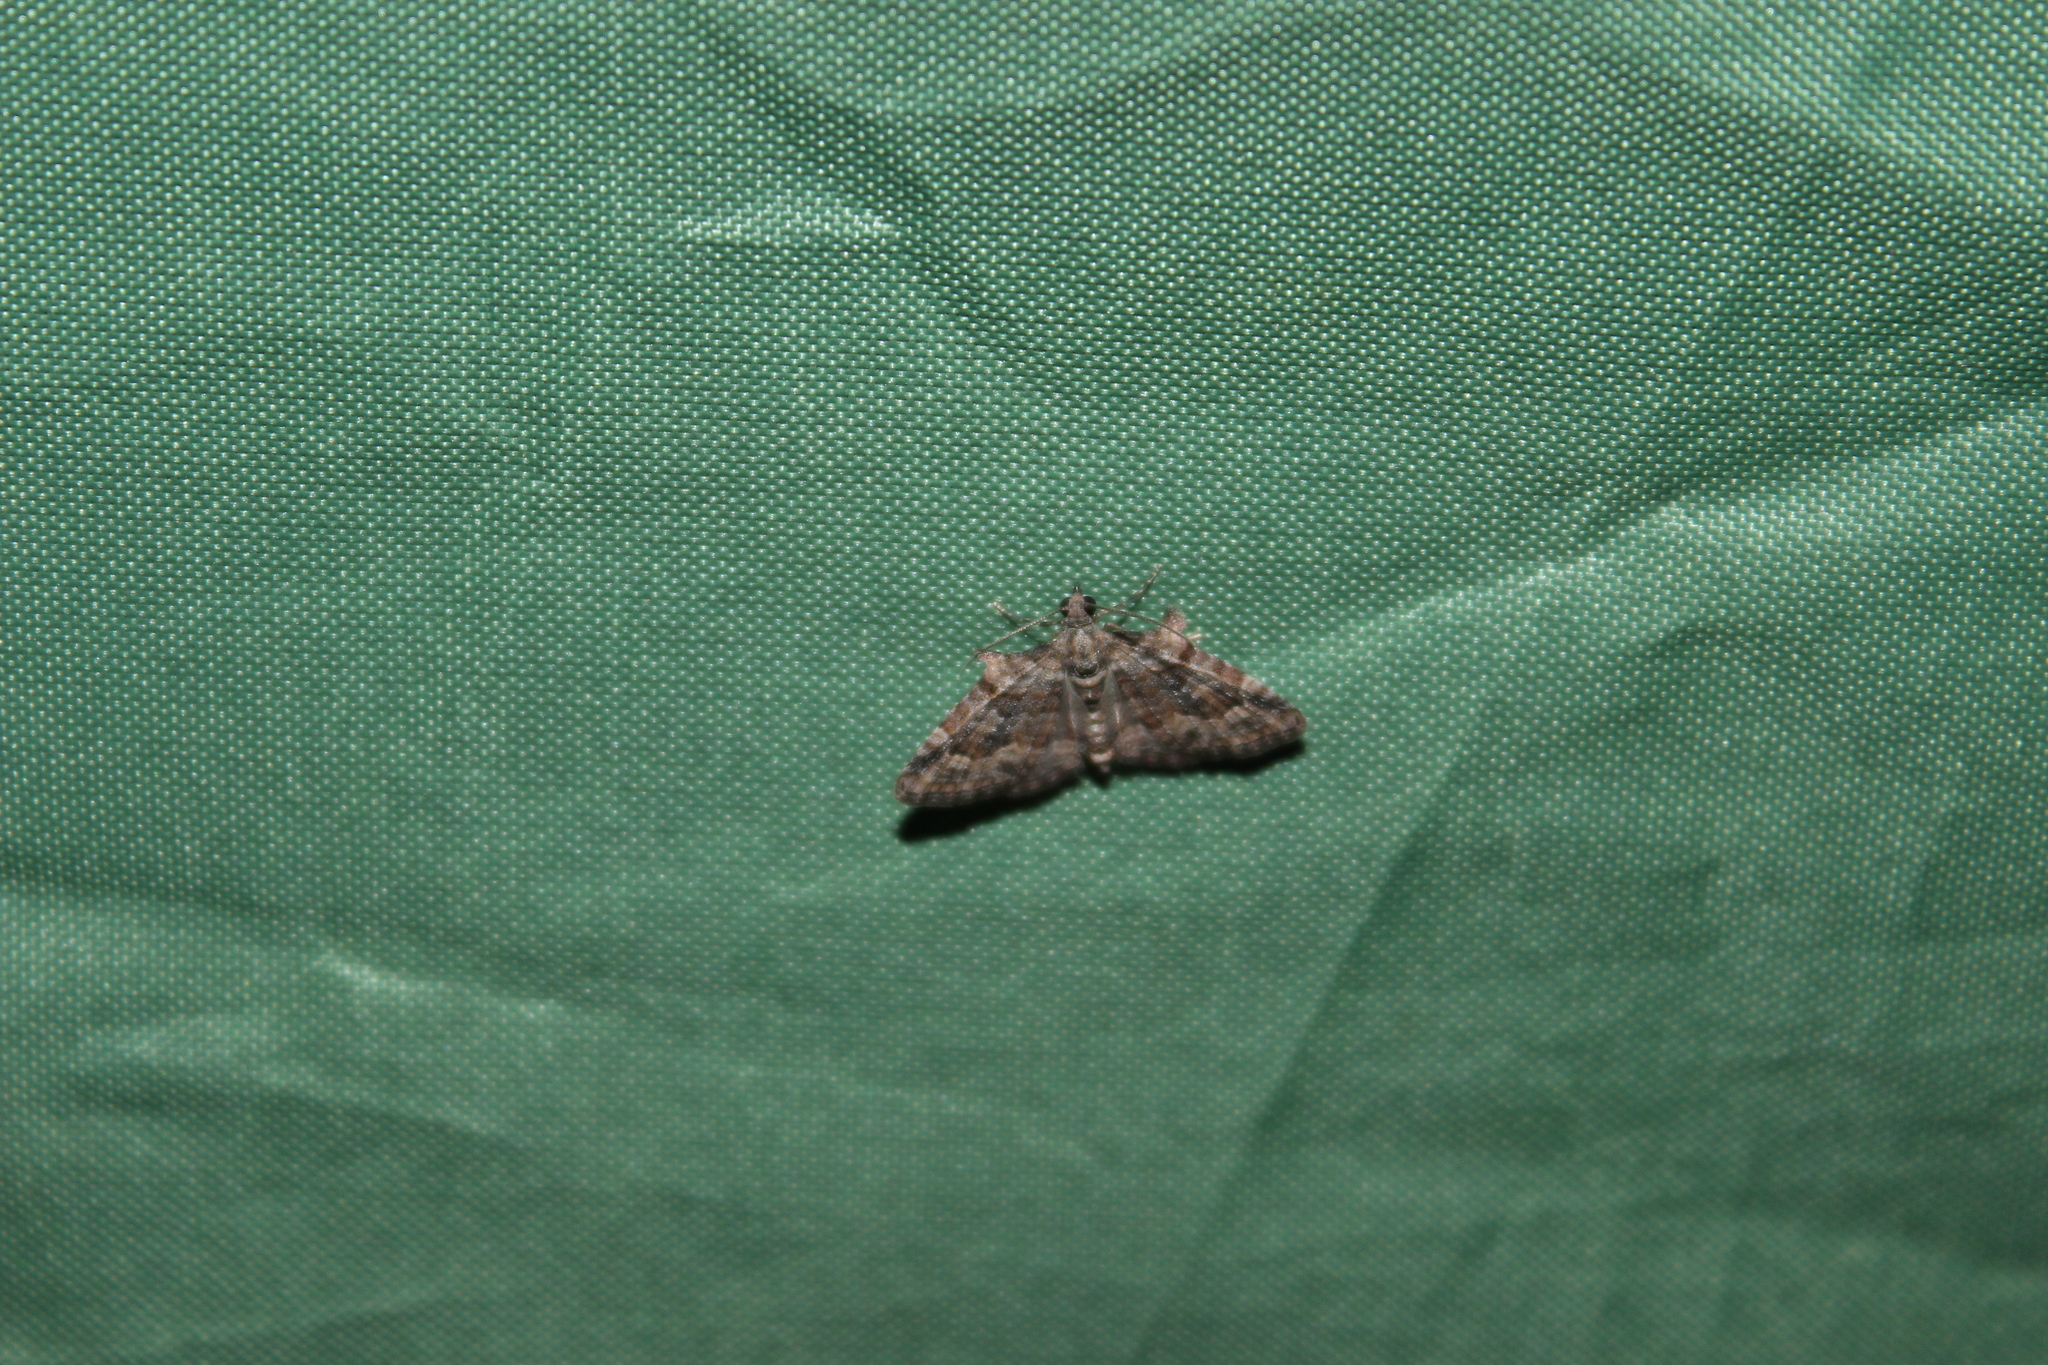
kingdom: Animalia
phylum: Arthropoda
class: Insecta
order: Lepidoptera
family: Geometridae
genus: Phrissogonus
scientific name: Phrissogonus laticostata
